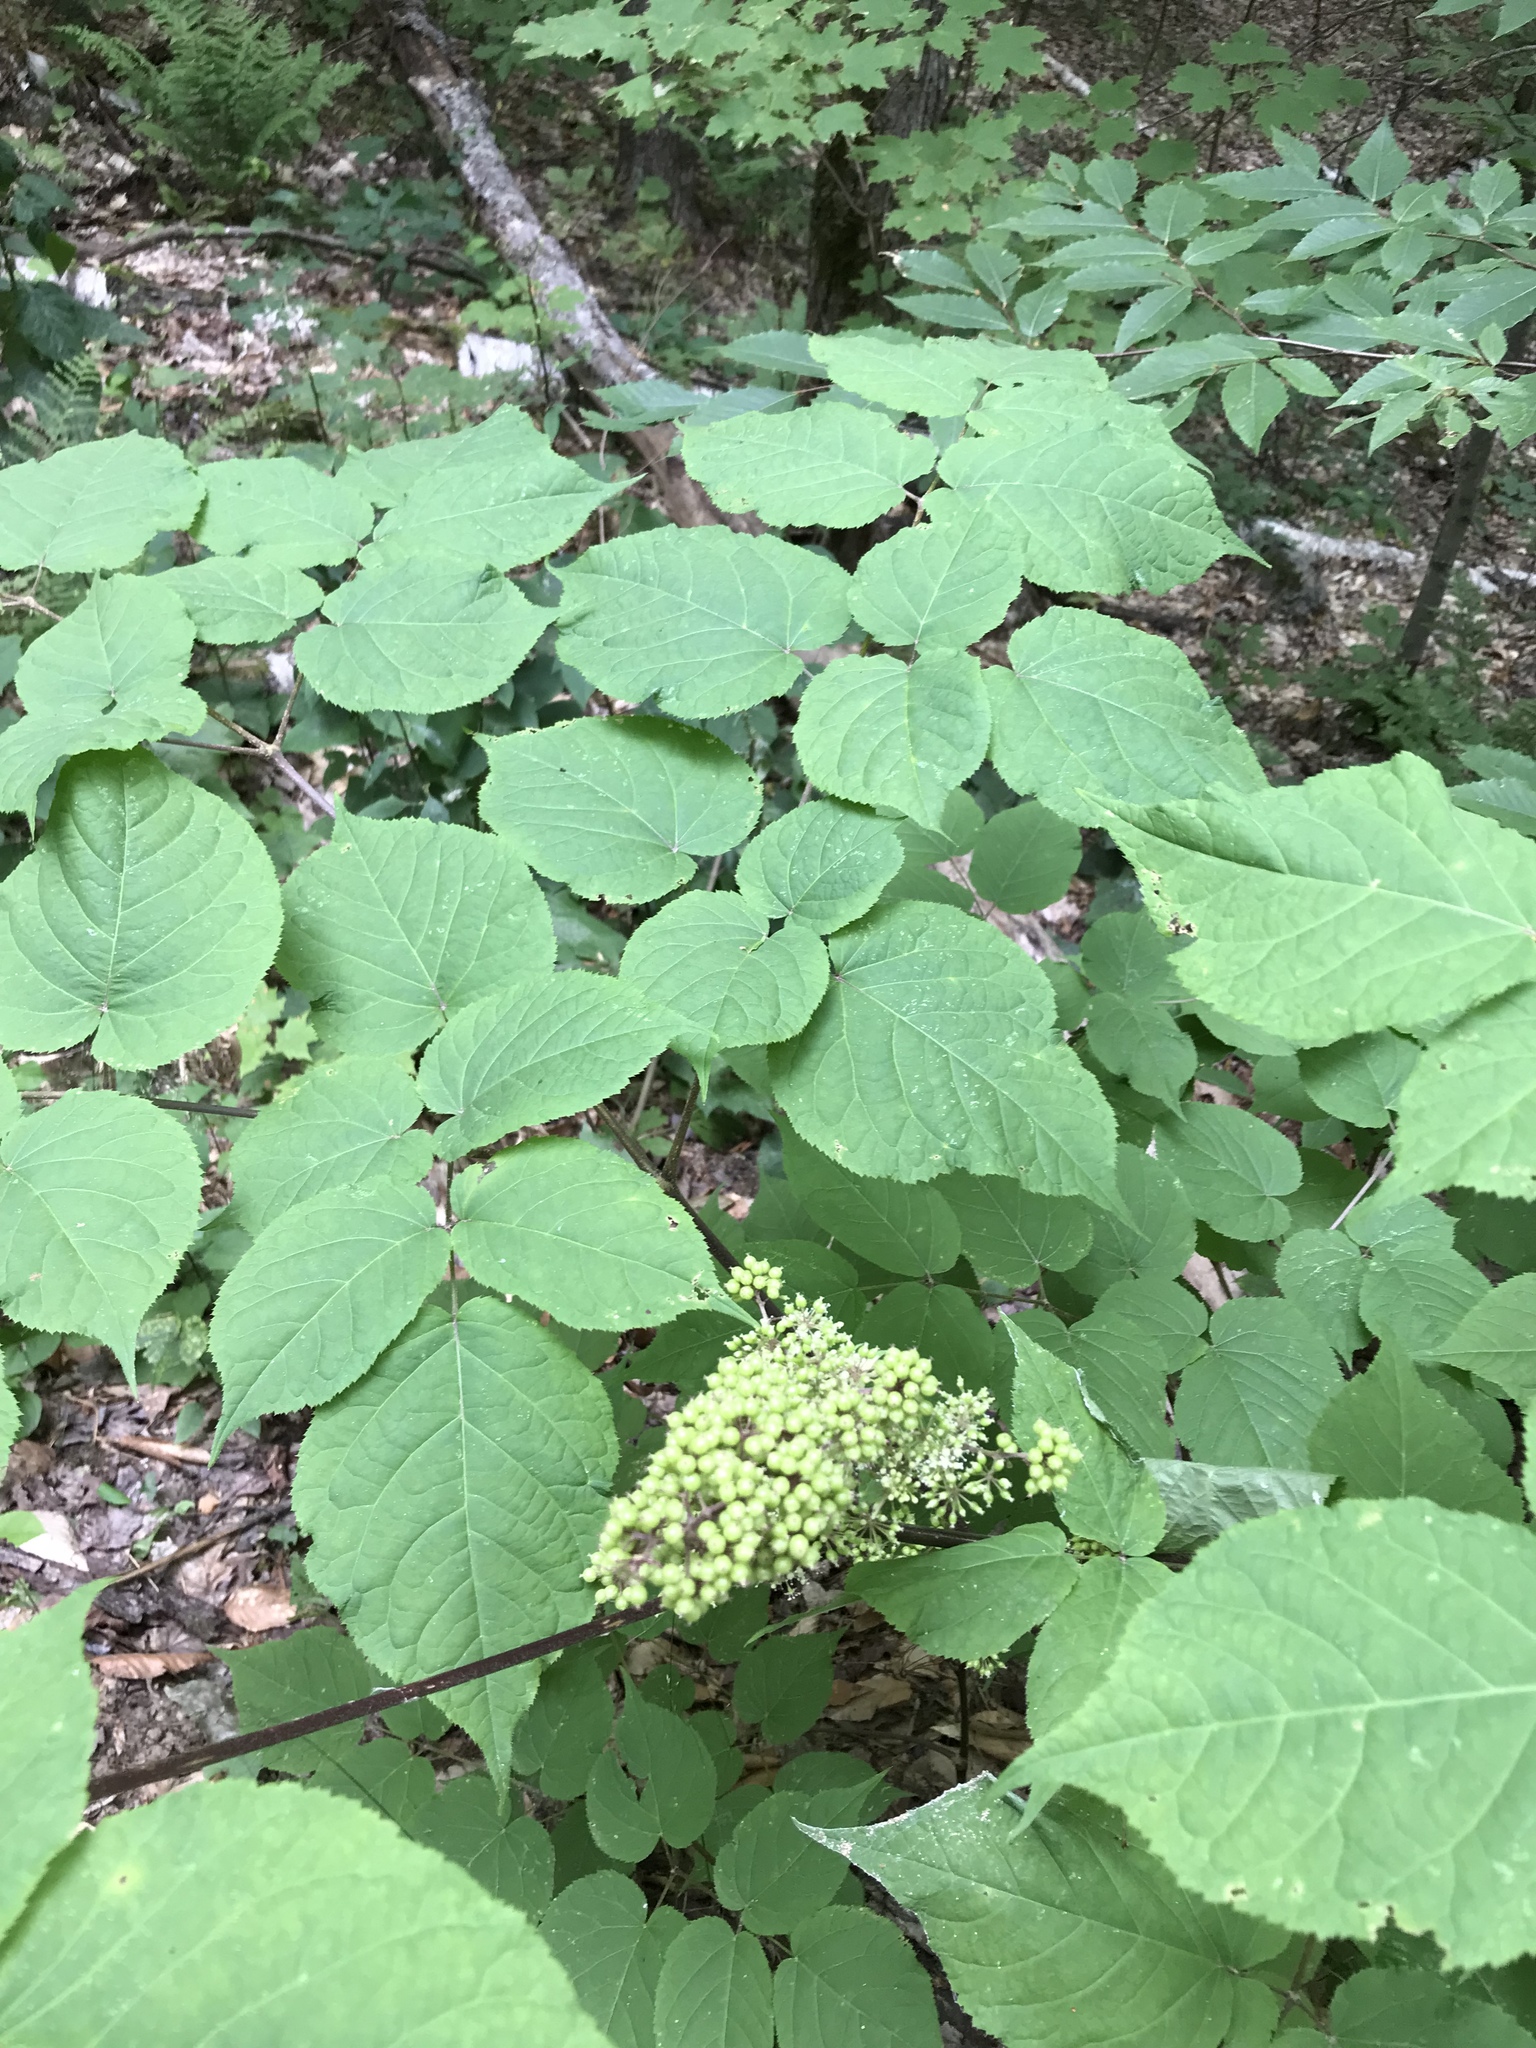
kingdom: Plantae
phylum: Tracheophyta
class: Magnoliopsida
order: Apiales
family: Araliaceae
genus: Aralia
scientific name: Aralia racemosa
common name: American-spikenard
